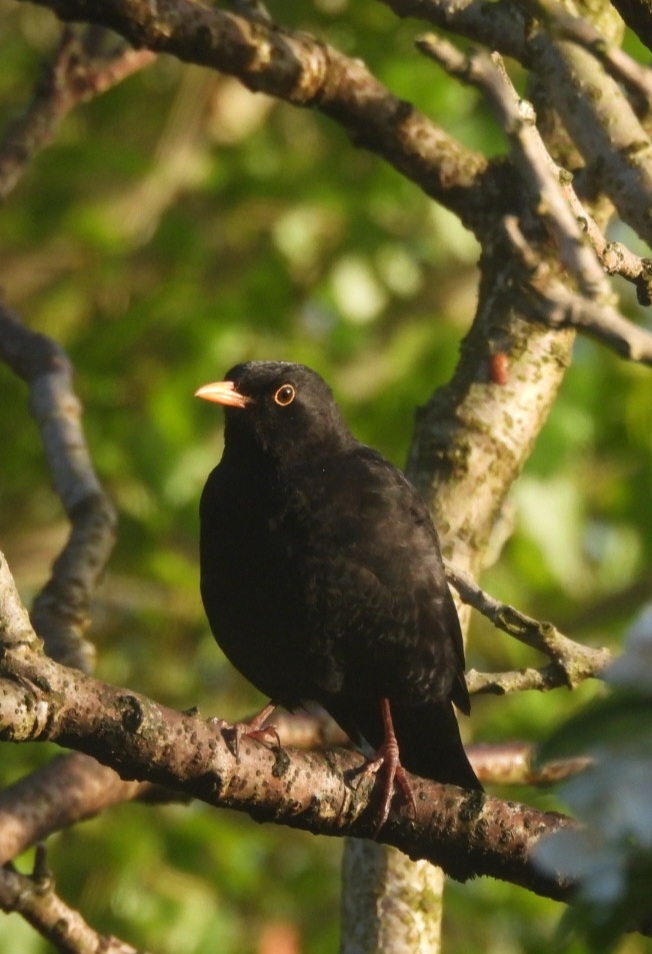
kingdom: Animalia
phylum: Chordata
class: Aves
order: Passeriformes
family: Turdidae
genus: Turdus
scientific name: Turdus merula
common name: Common blackbird
